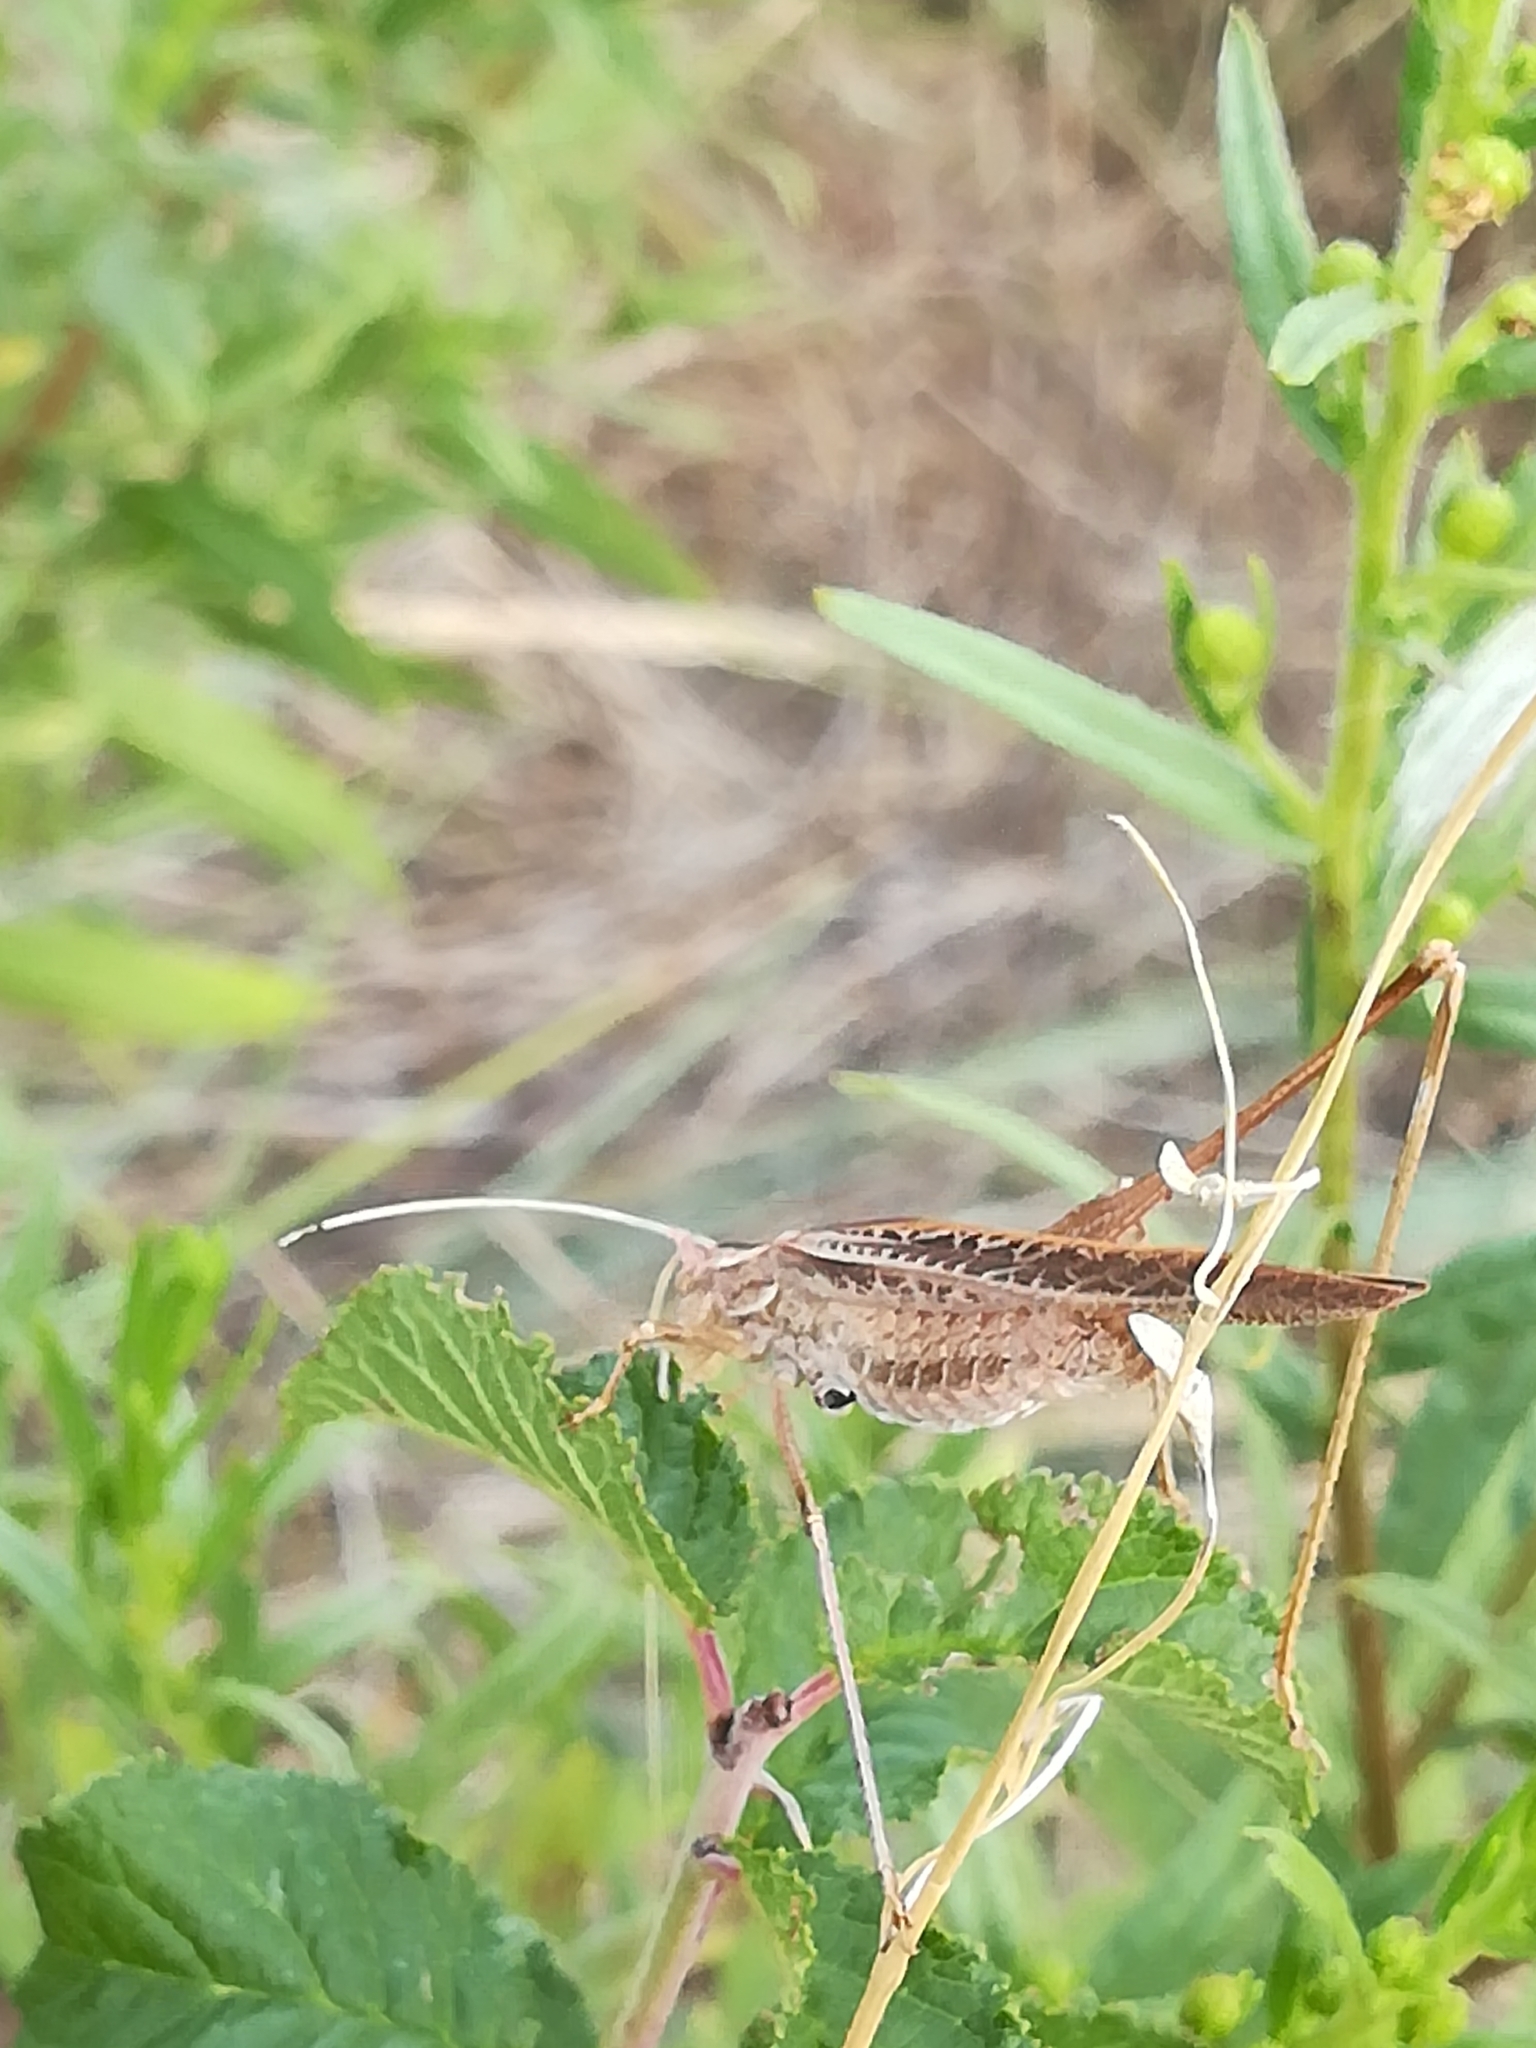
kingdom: Animalia
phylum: Arthropoda
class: Insecta
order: Orthoptera
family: Tettigoniidae
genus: Tylopsis
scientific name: Tylopsis lilifolia
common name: Lily bush-cricket
